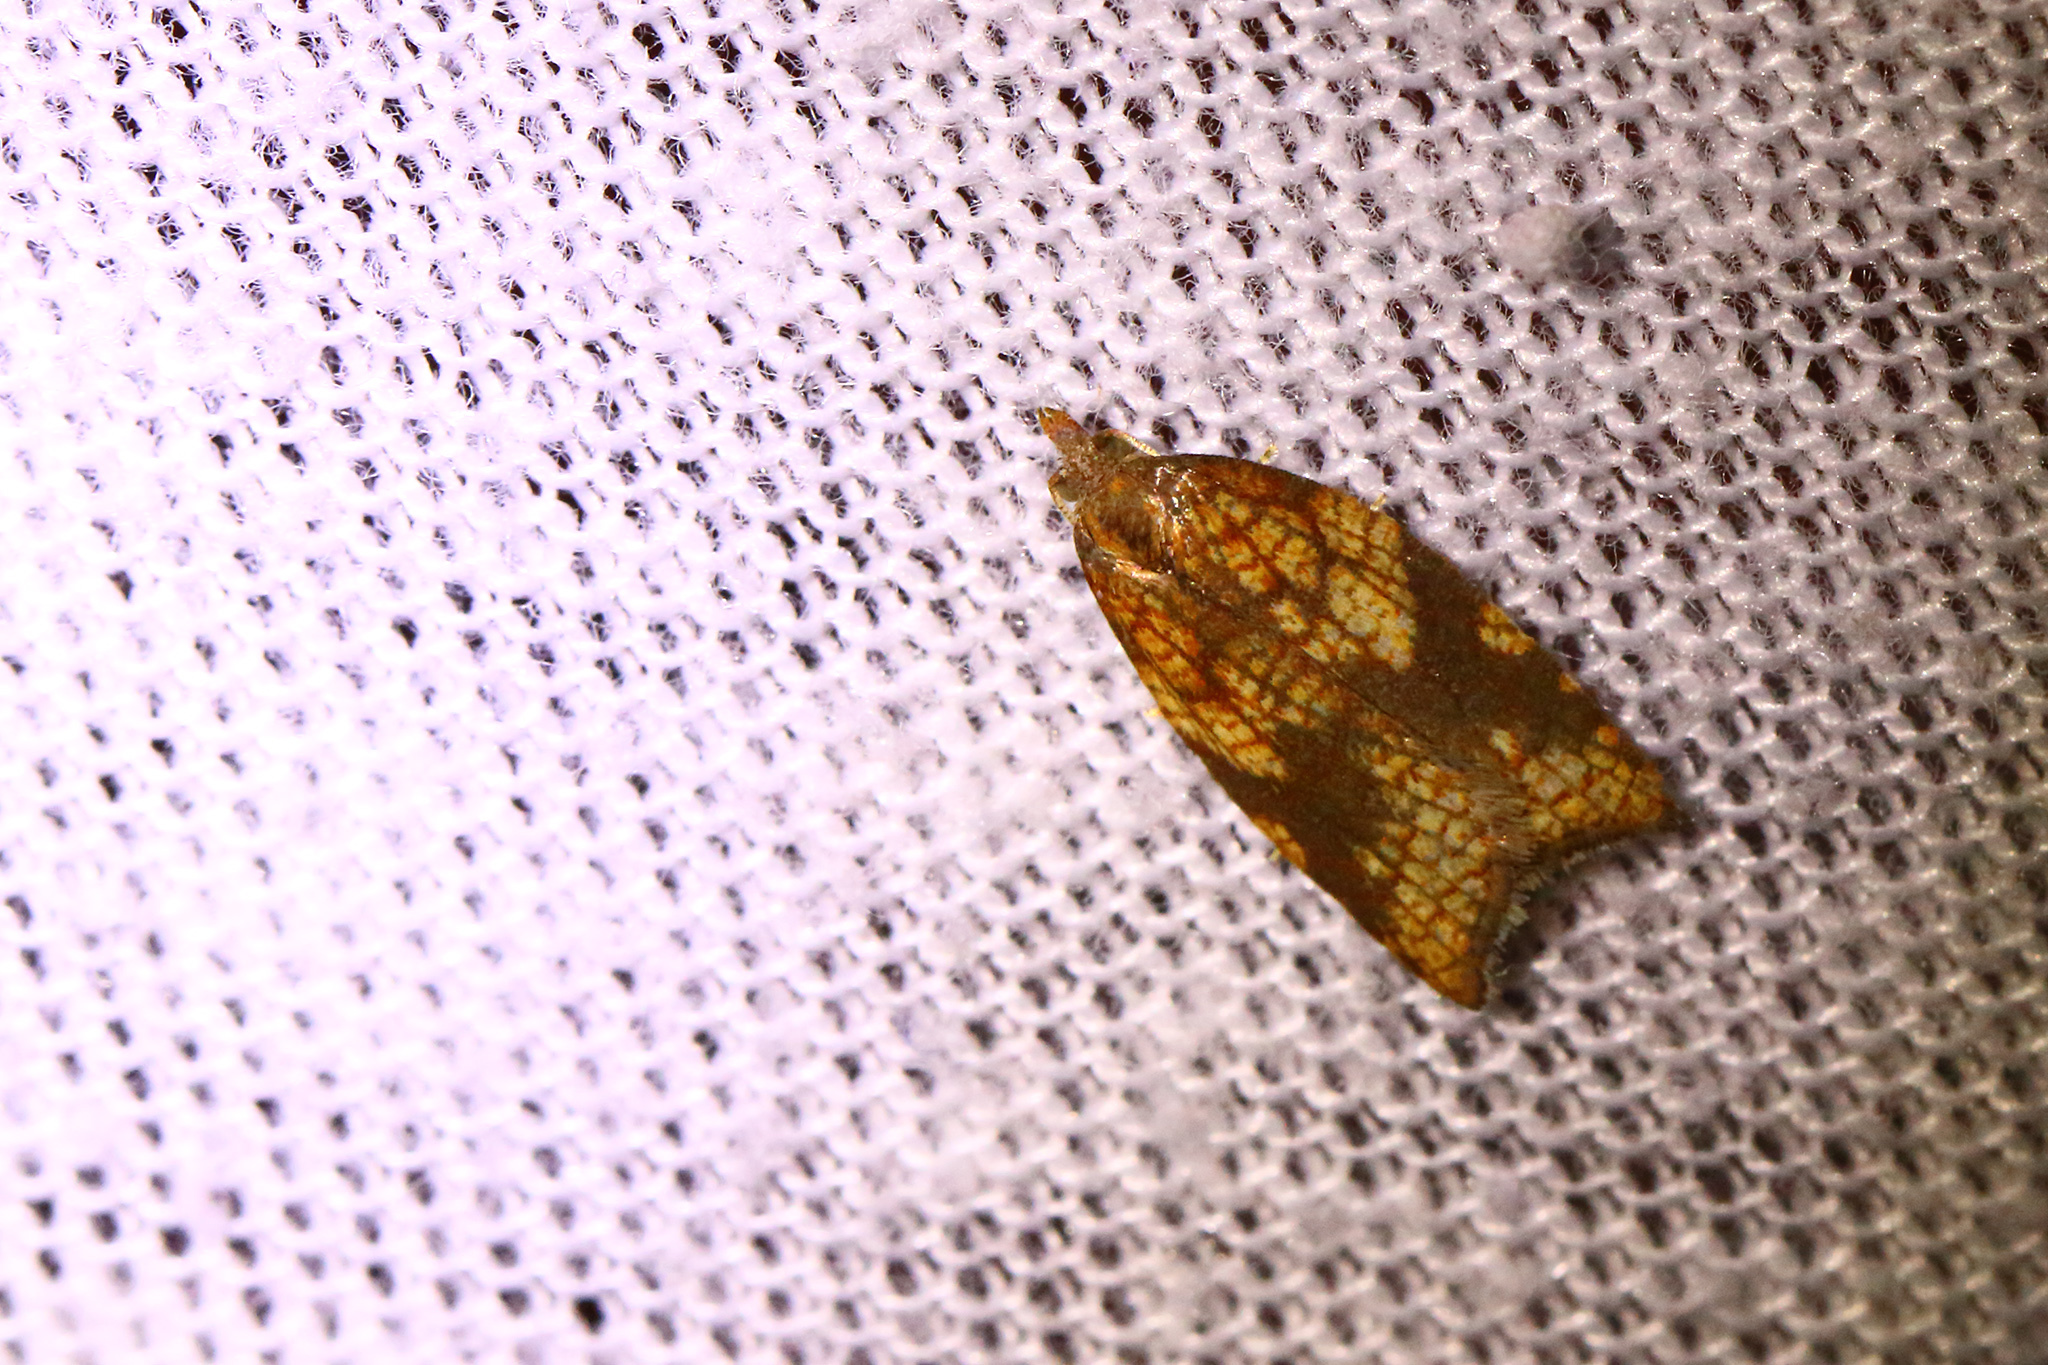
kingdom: Animalia
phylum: Arthropoda
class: Insecta
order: Lepidoptera
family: Tortricidae
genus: Acleris
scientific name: Acleris rhombana
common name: Tortricid moth
